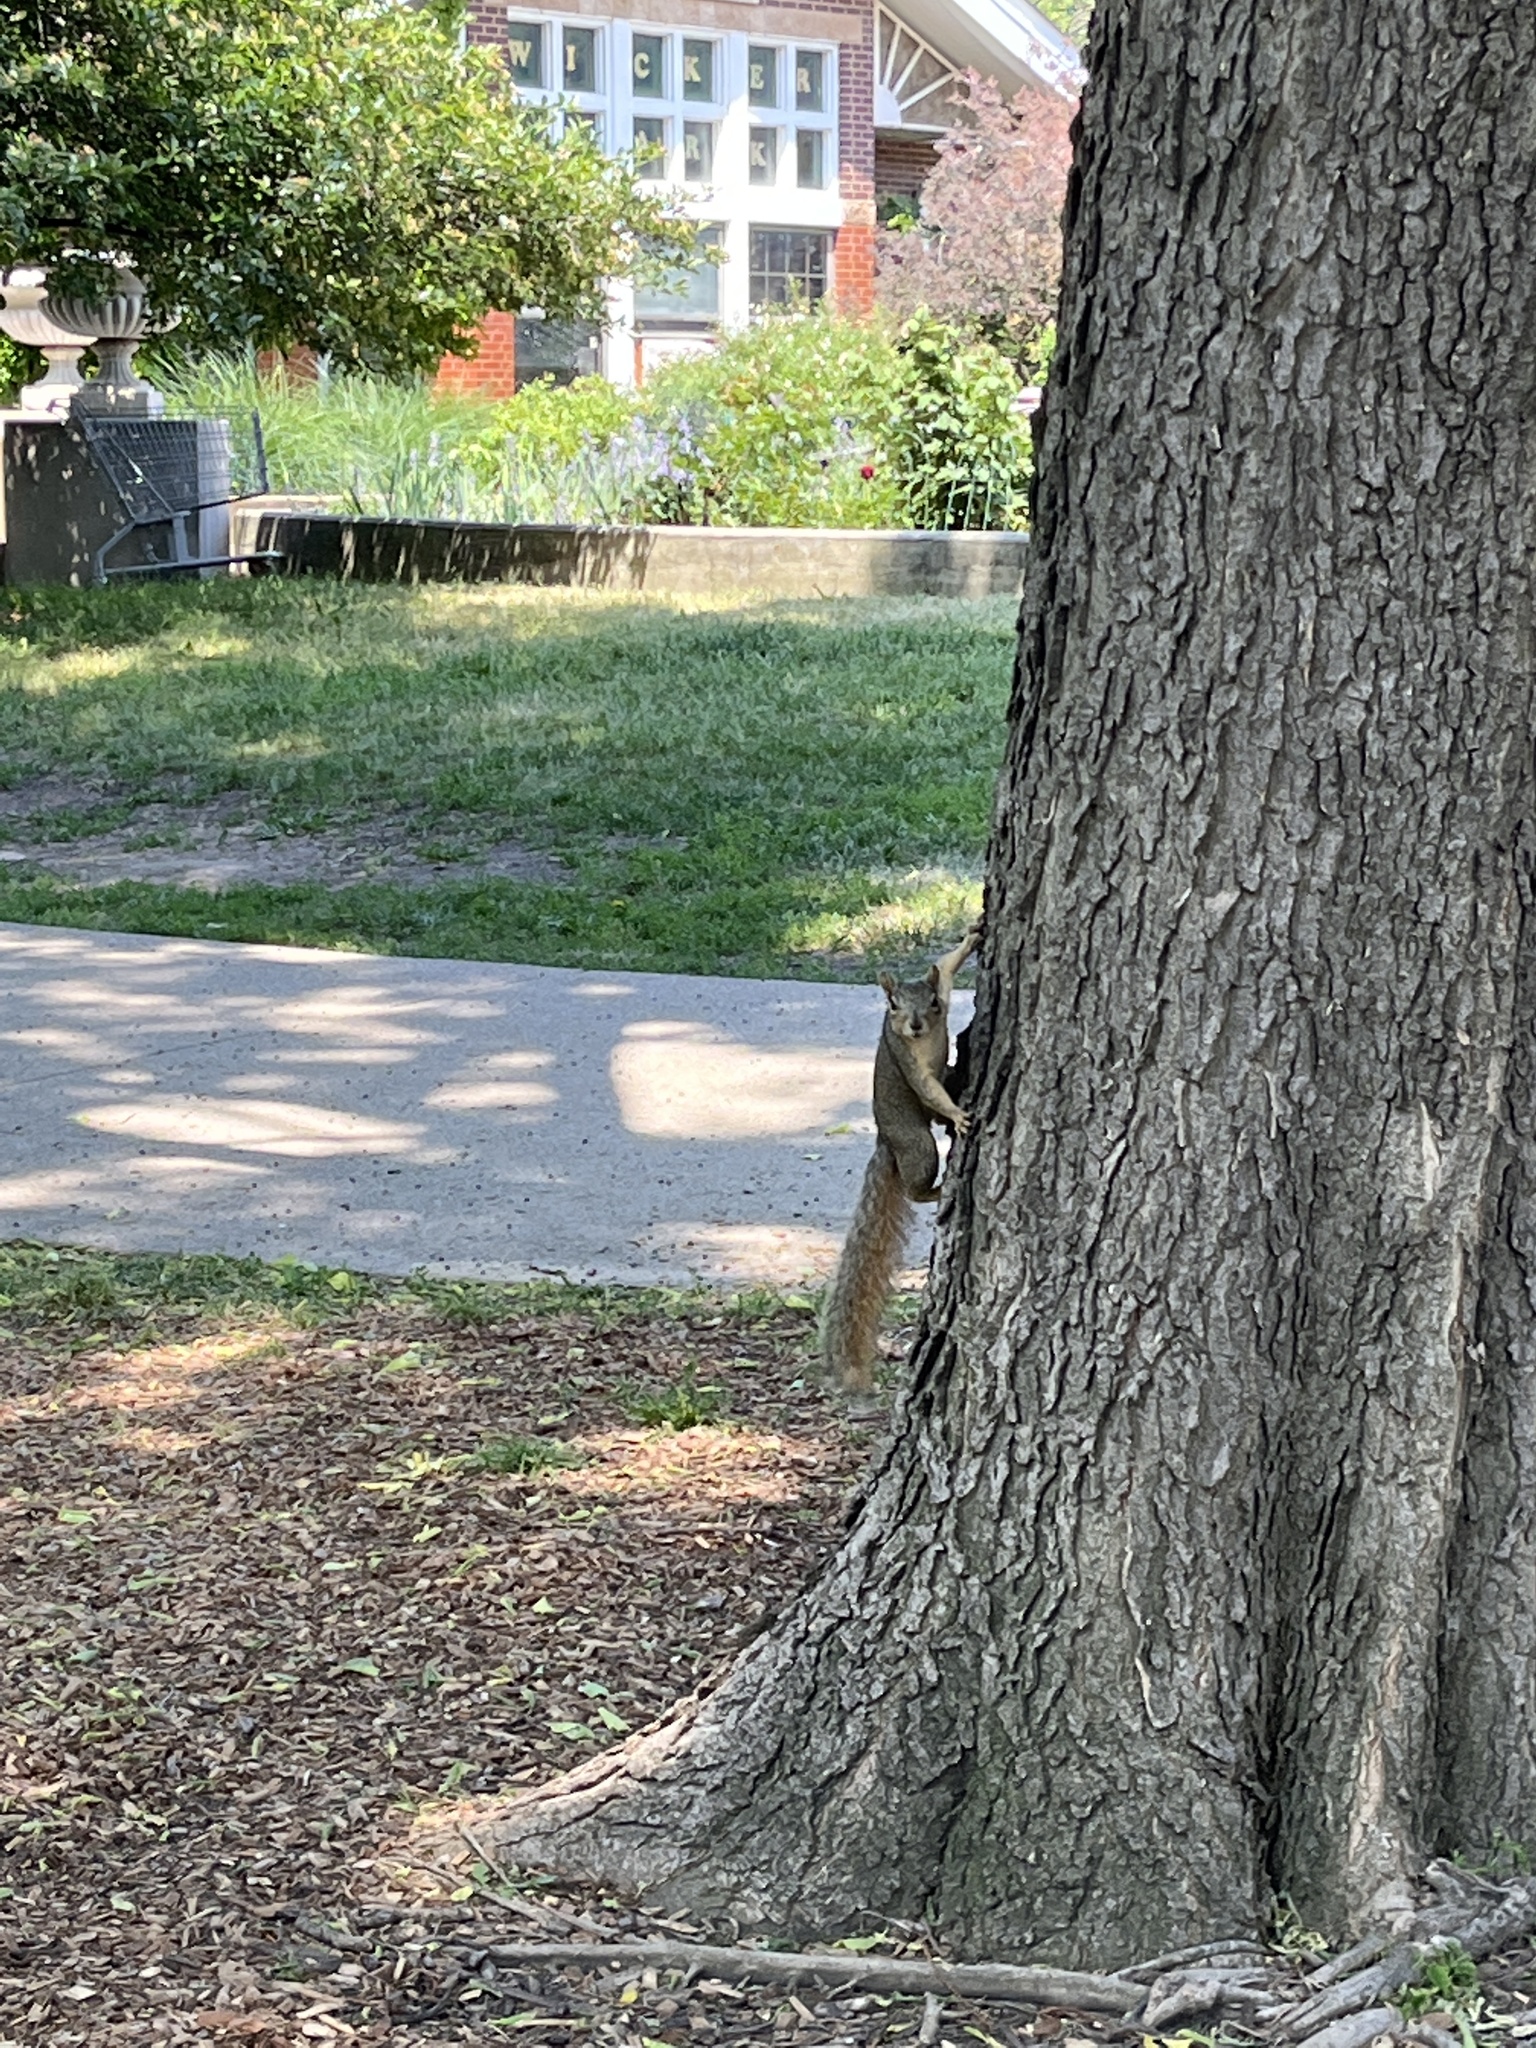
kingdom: Animalia
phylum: Chordata
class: Mammalia
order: Rodentia
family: Sciuridae
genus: Sciurus
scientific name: Sciurus carolinensis
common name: Eastern gray squirrel
